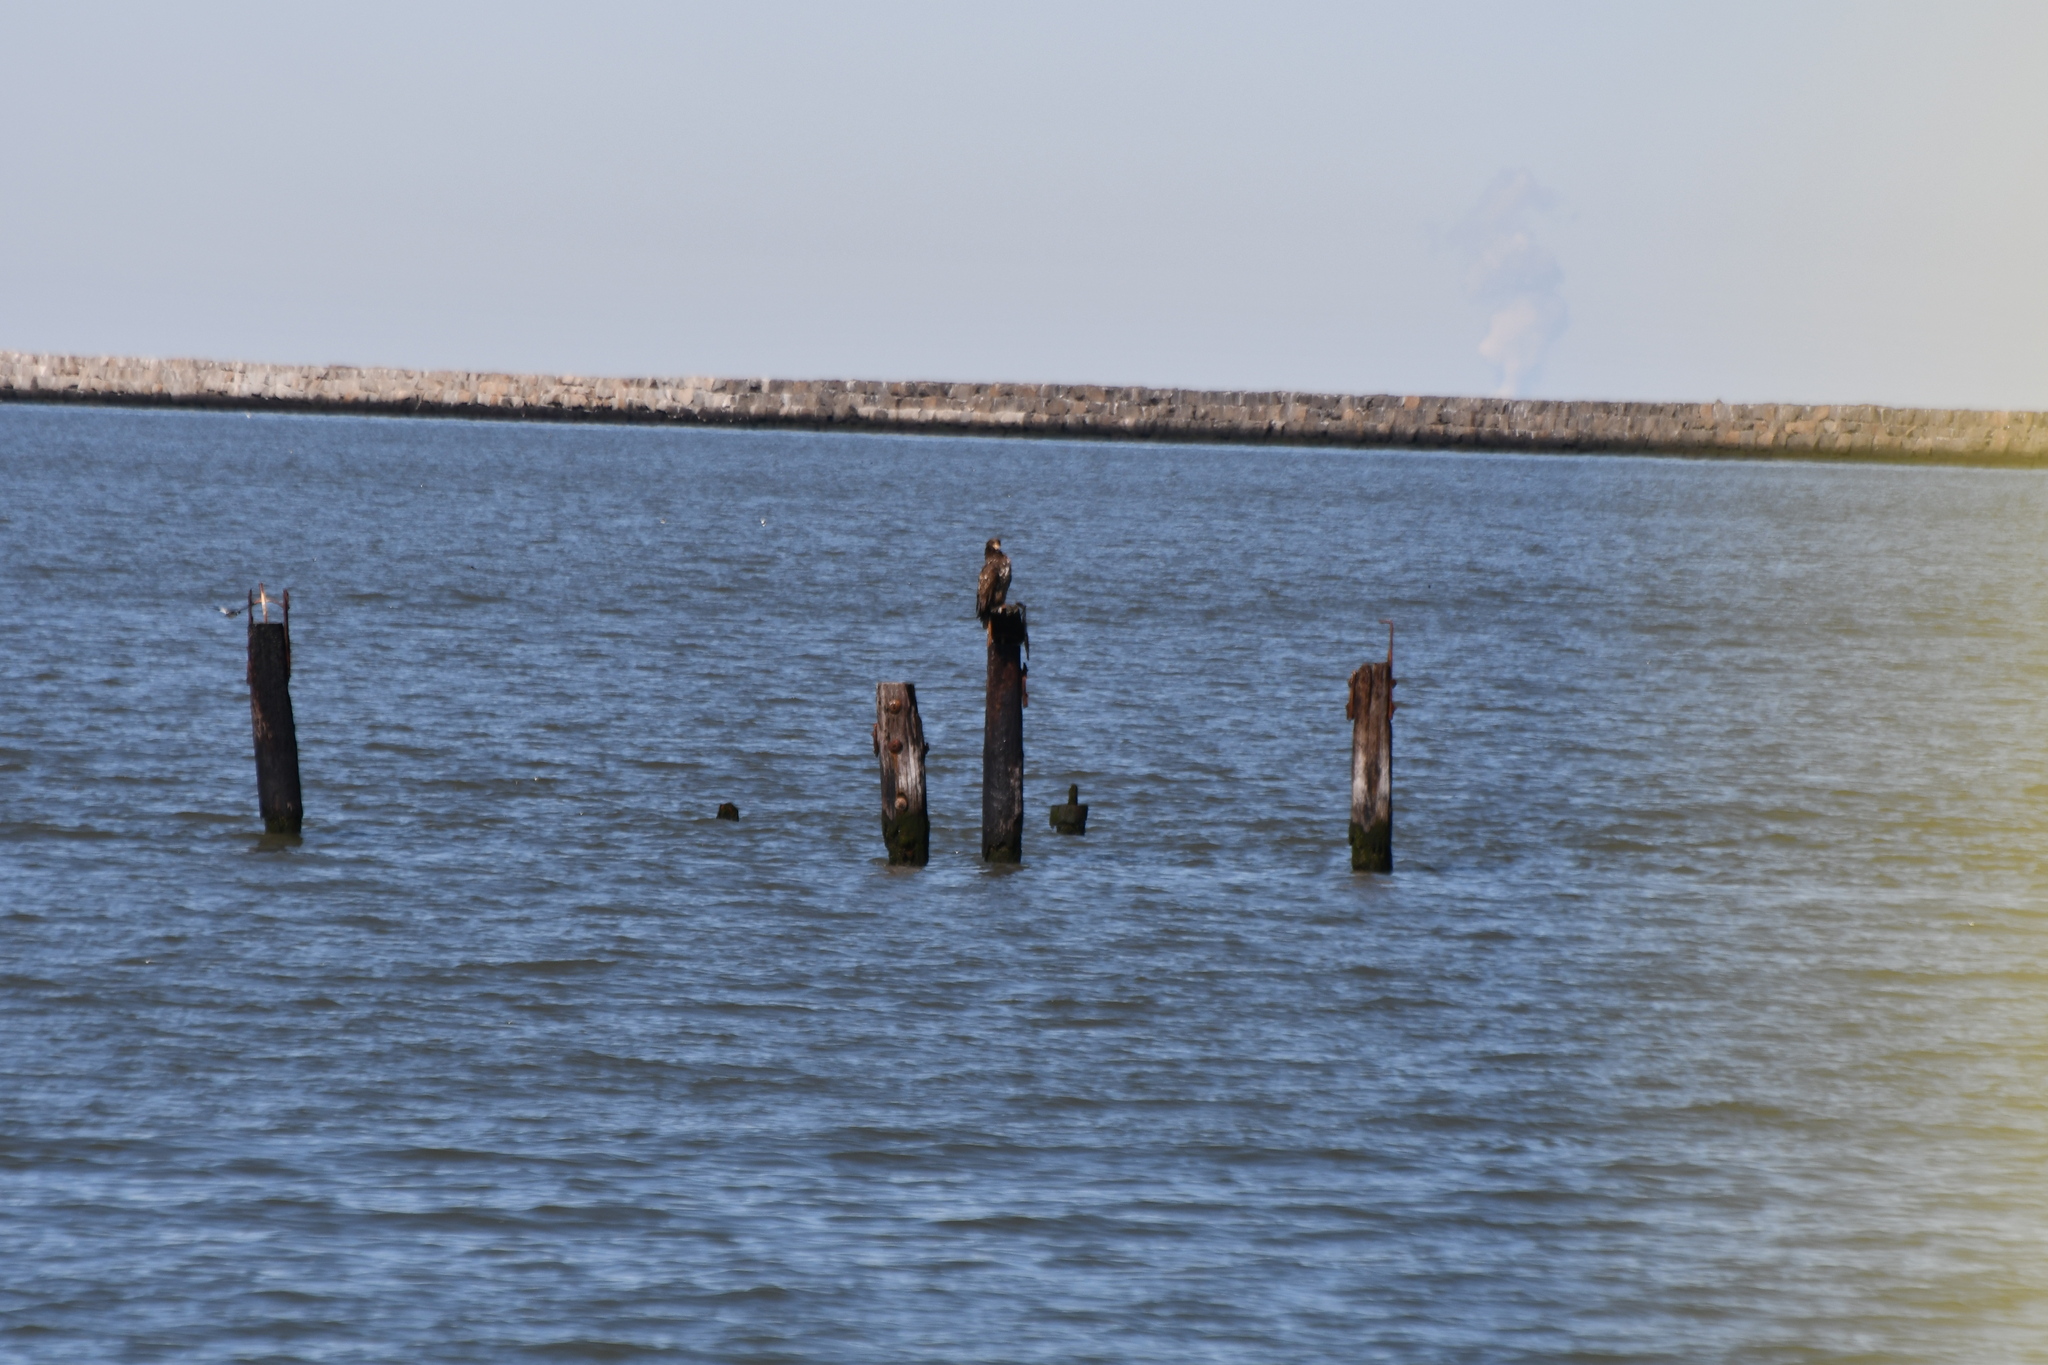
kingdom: Animalia
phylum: Chordata
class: Aves
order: Accipitriformes
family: Accipitridae
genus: Haliaeetus
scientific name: Haliaeetus leucocephalus
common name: Bald eagle
